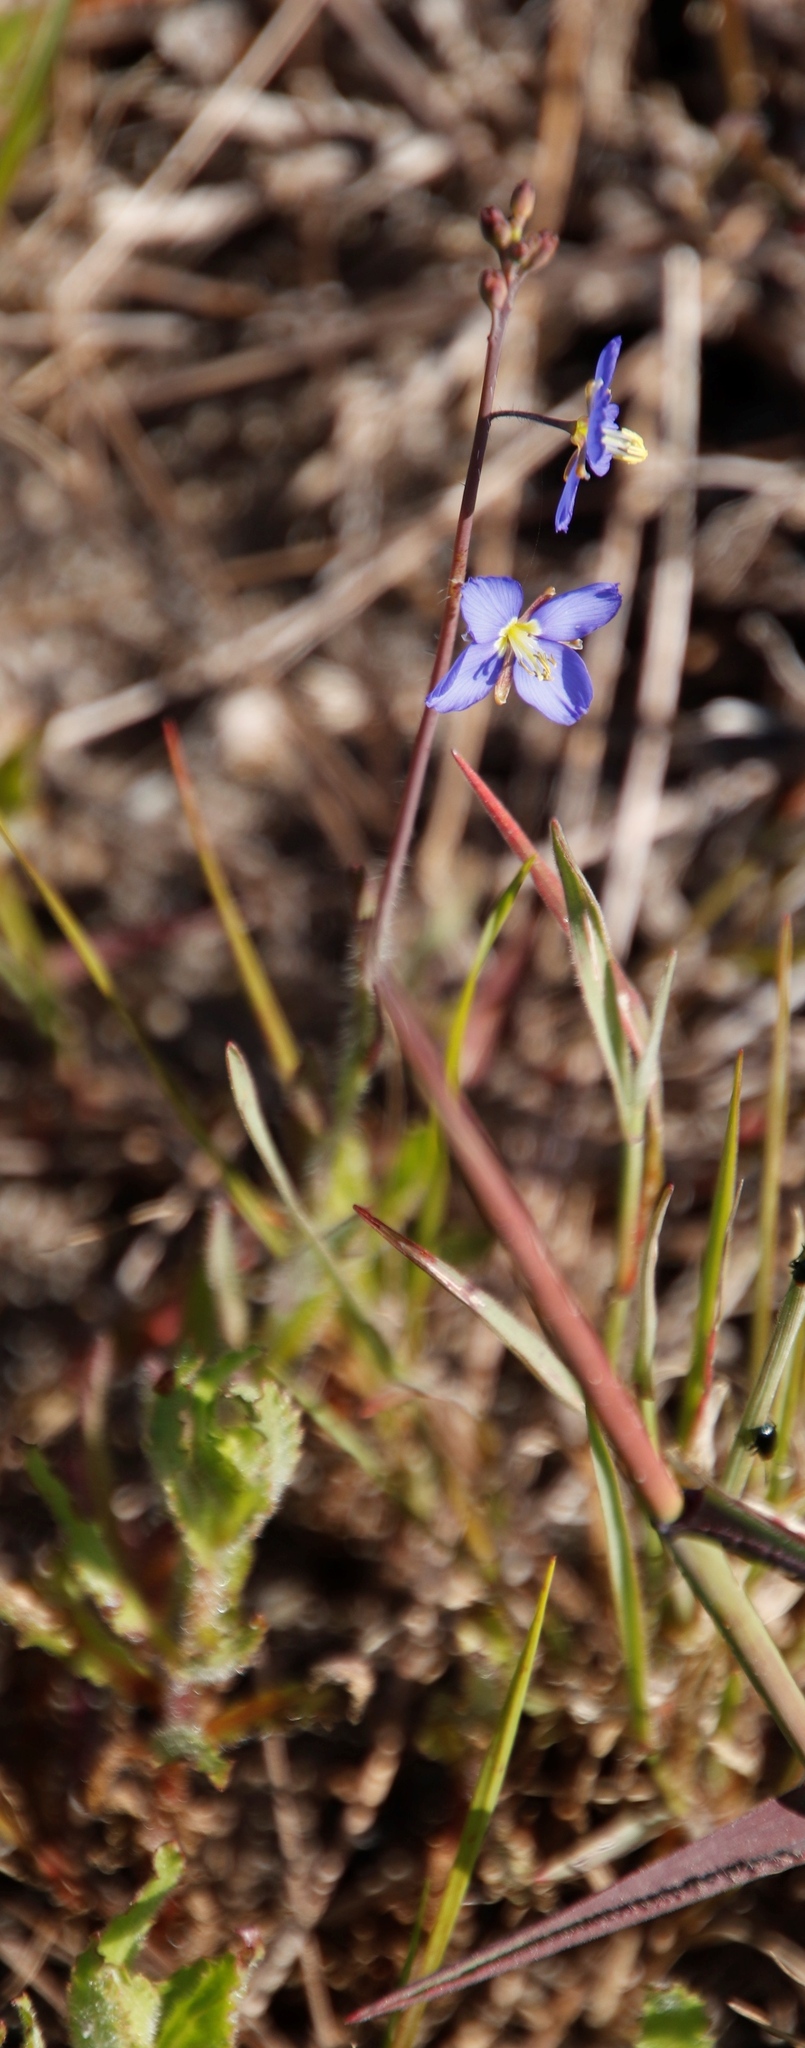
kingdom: Plantae
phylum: Tracheophyta
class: Magnoliopsida
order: Brassicales
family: Brassicaceae
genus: Heliophila
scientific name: Heliophila africana
